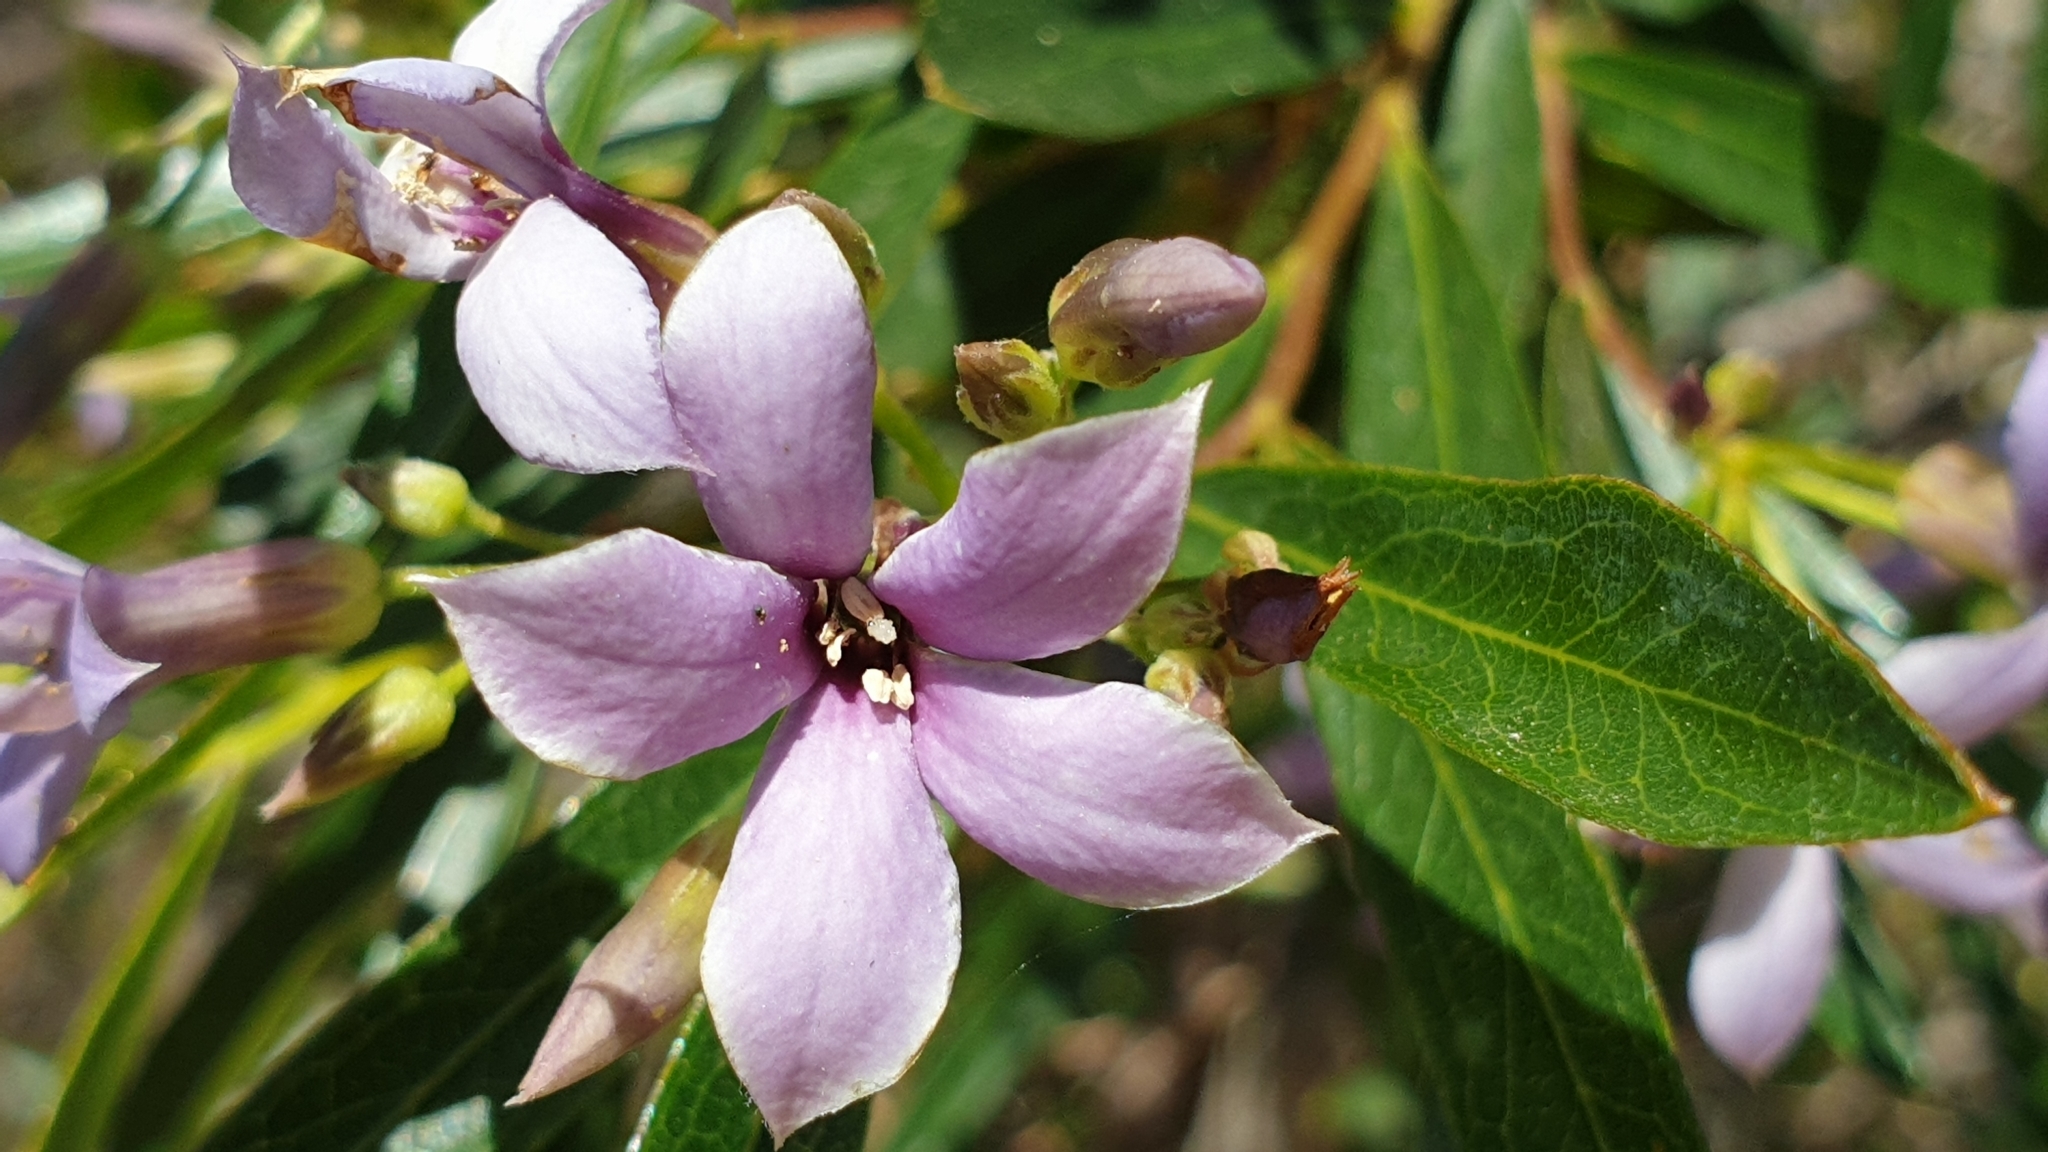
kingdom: Plantae
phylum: Tracheophyta
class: Magnoliopsida
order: Apiales
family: Pittosporaceae
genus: Billardiera
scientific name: Billardiera cymosa
